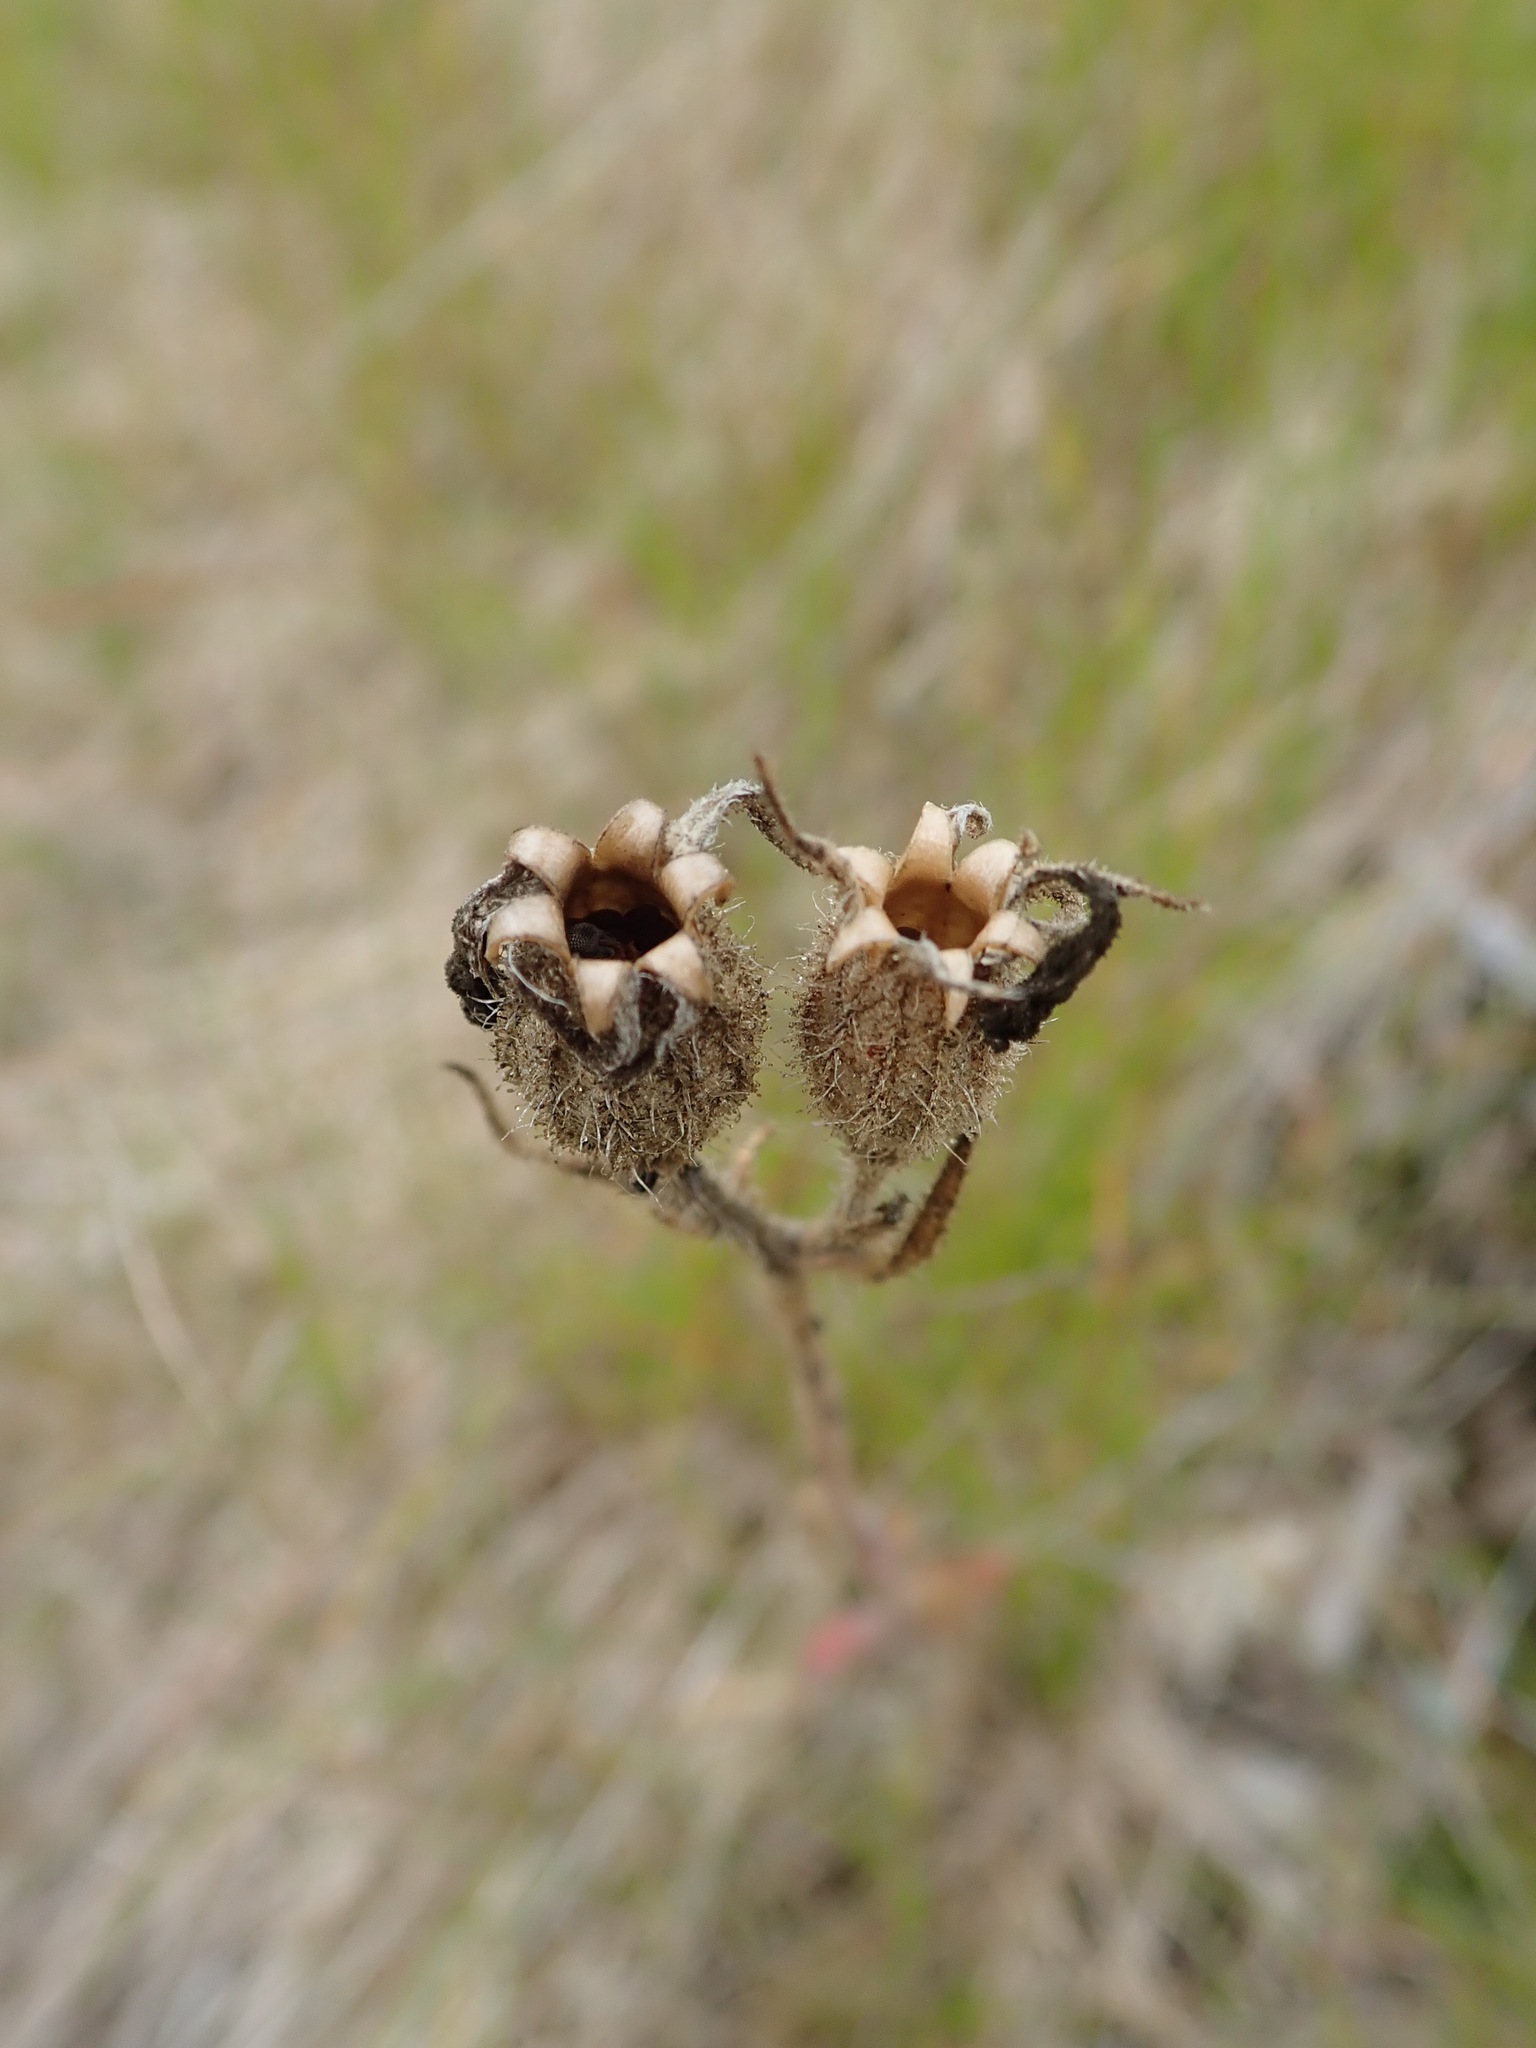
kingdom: Plantae
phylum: Tracheophyta
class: Magnoliopsida
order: Caryophyllales
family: Caryophyllaceae
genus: Silene
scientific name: Silene latifolia
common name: White campion
